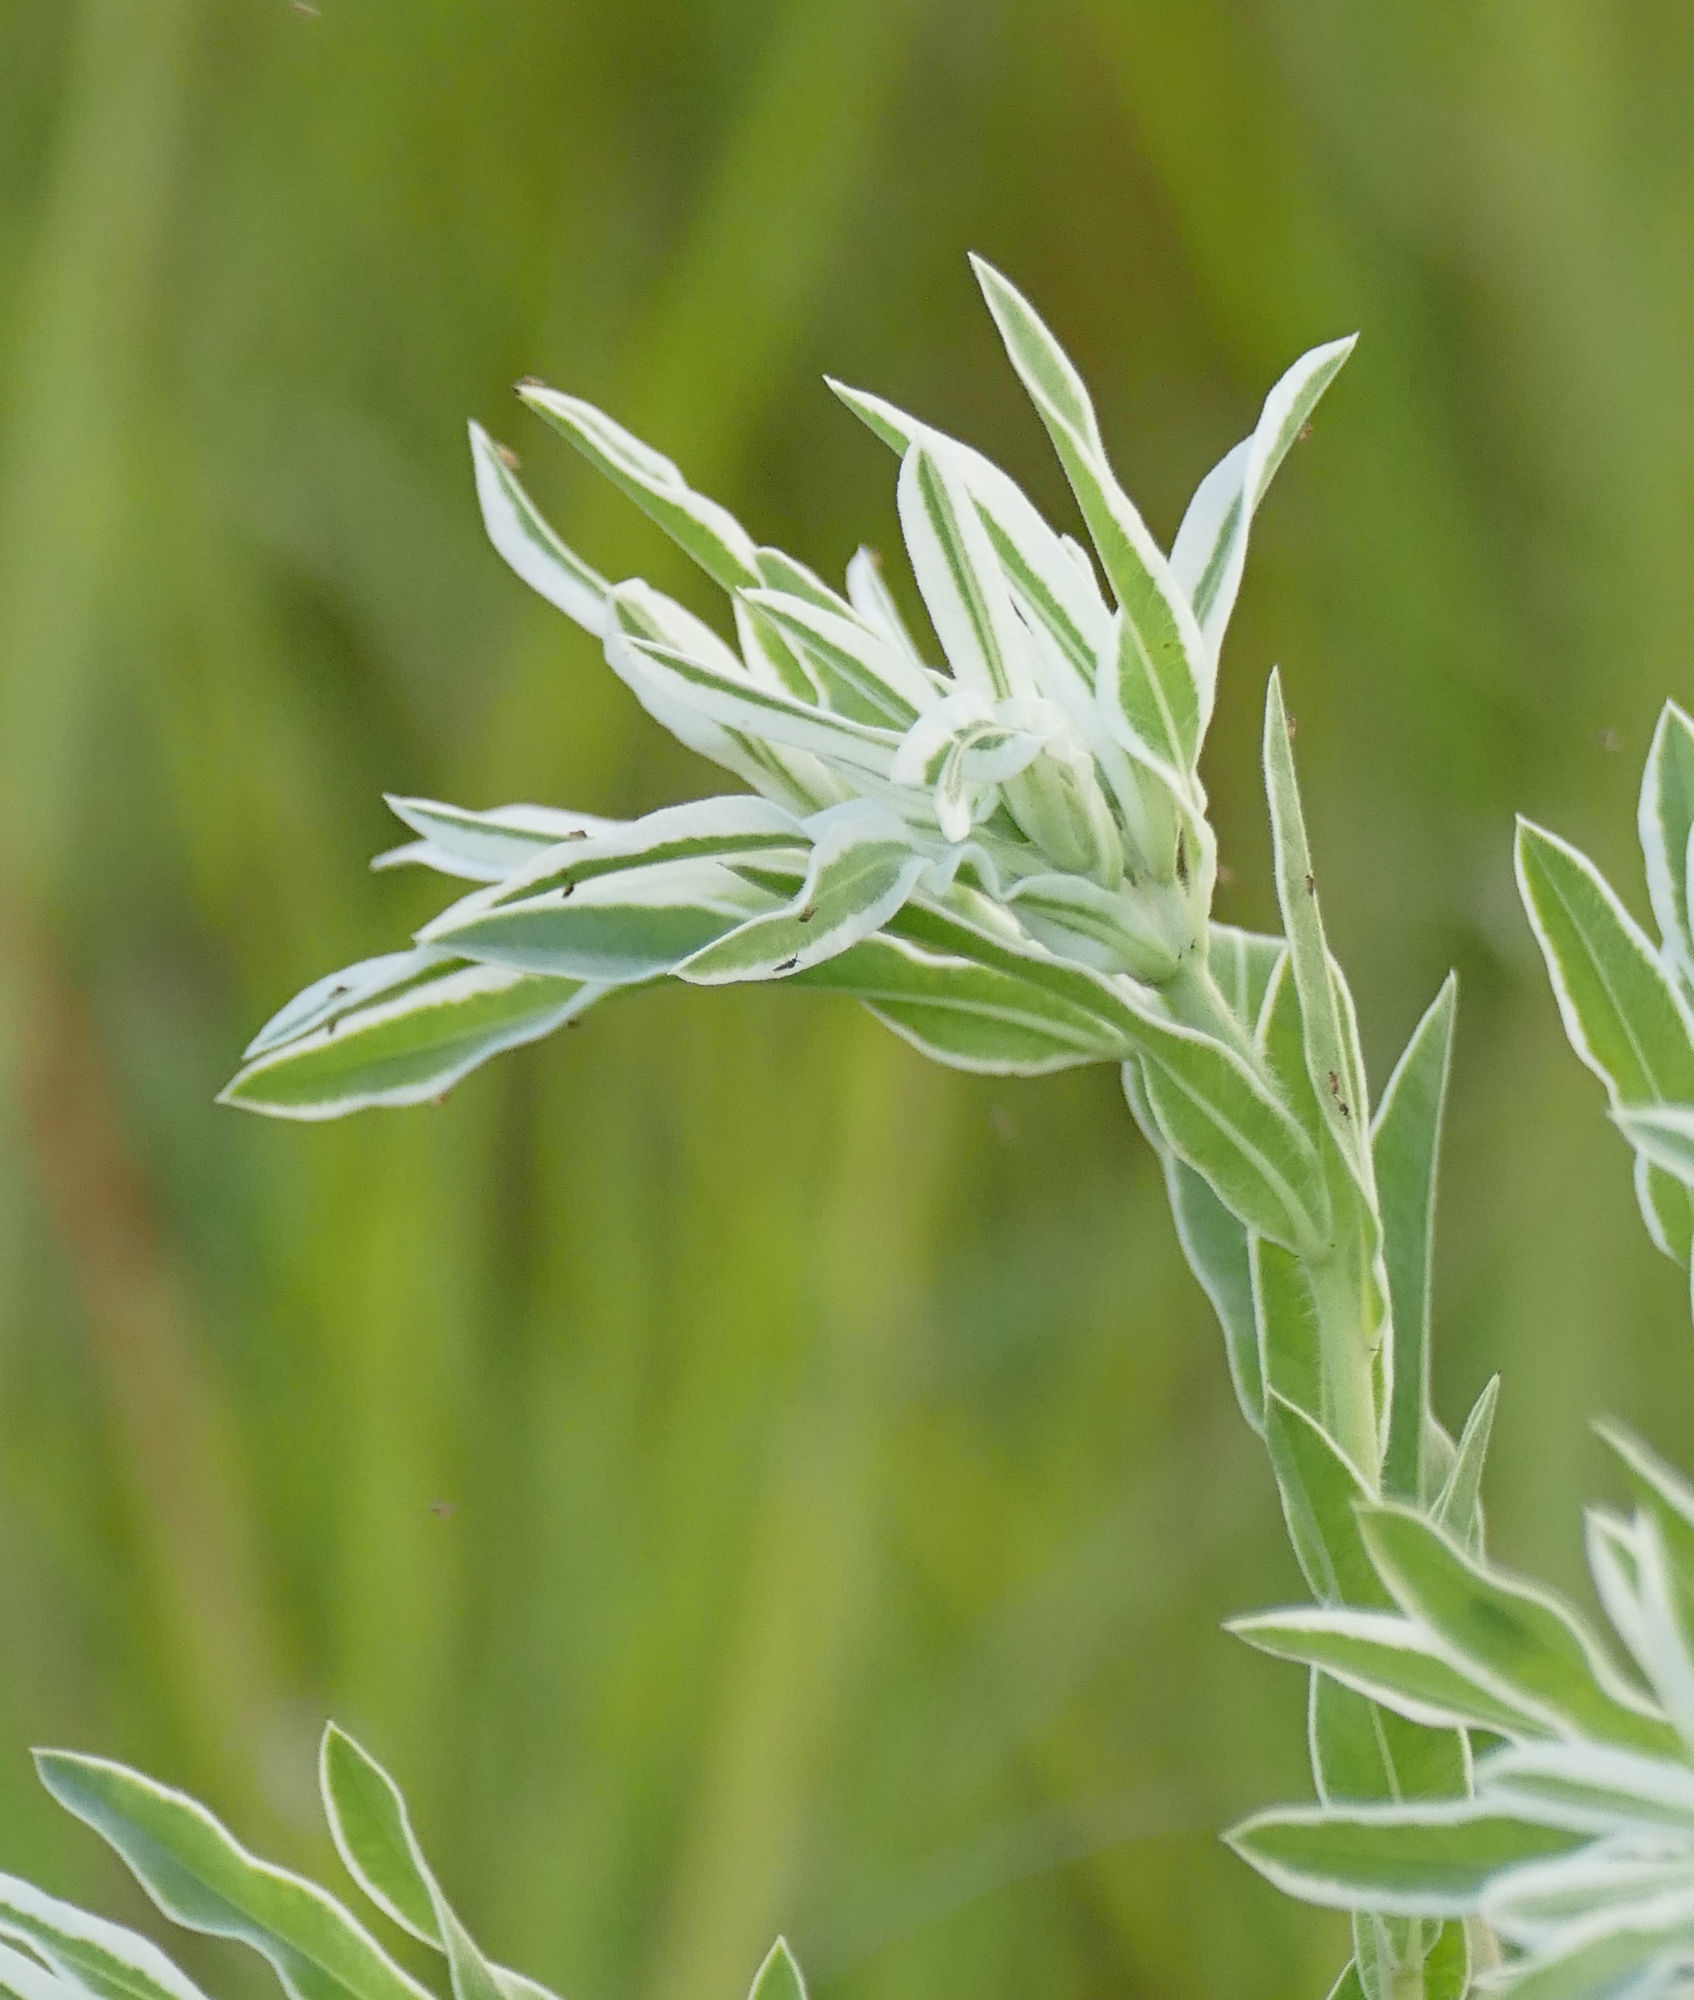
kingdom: Plantae
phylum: Tracheophyta
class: Magnoliopsida
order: Malpighiales
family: Euphorbiaceae
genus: Euphorbia
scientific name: Euphorbia bicolor
